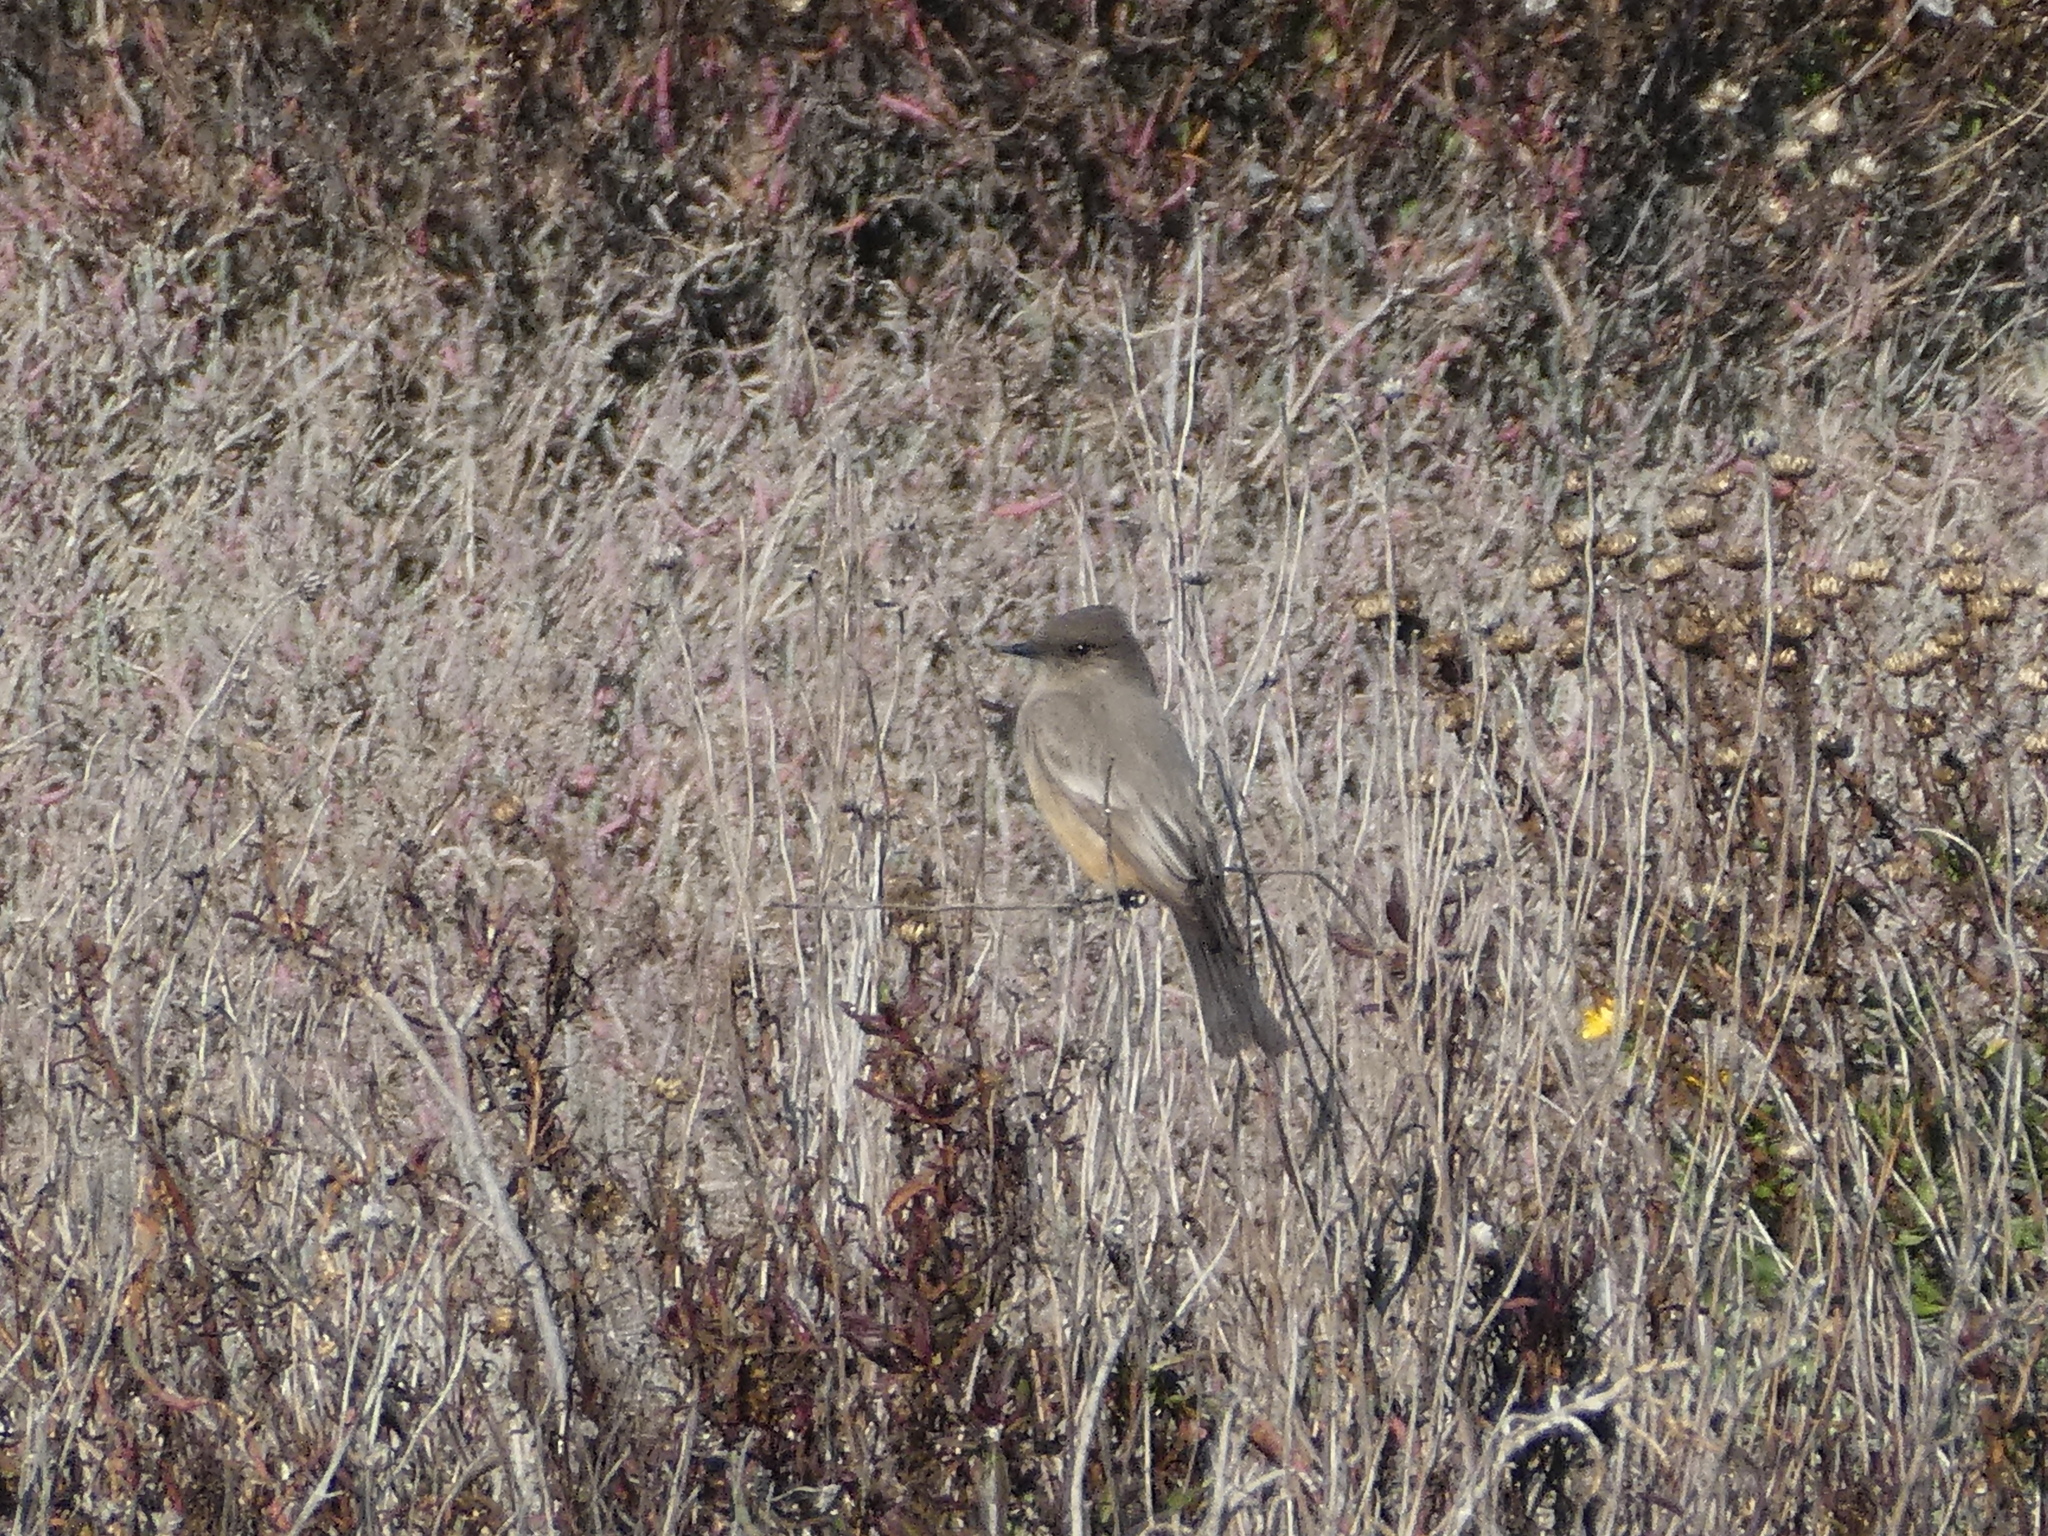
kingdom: Animalia
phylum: Chordata
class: Aves
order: Passeriformes
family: Tyrannidae
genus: Sayornis
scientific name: Sayornis saya
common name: Say's phoebe
